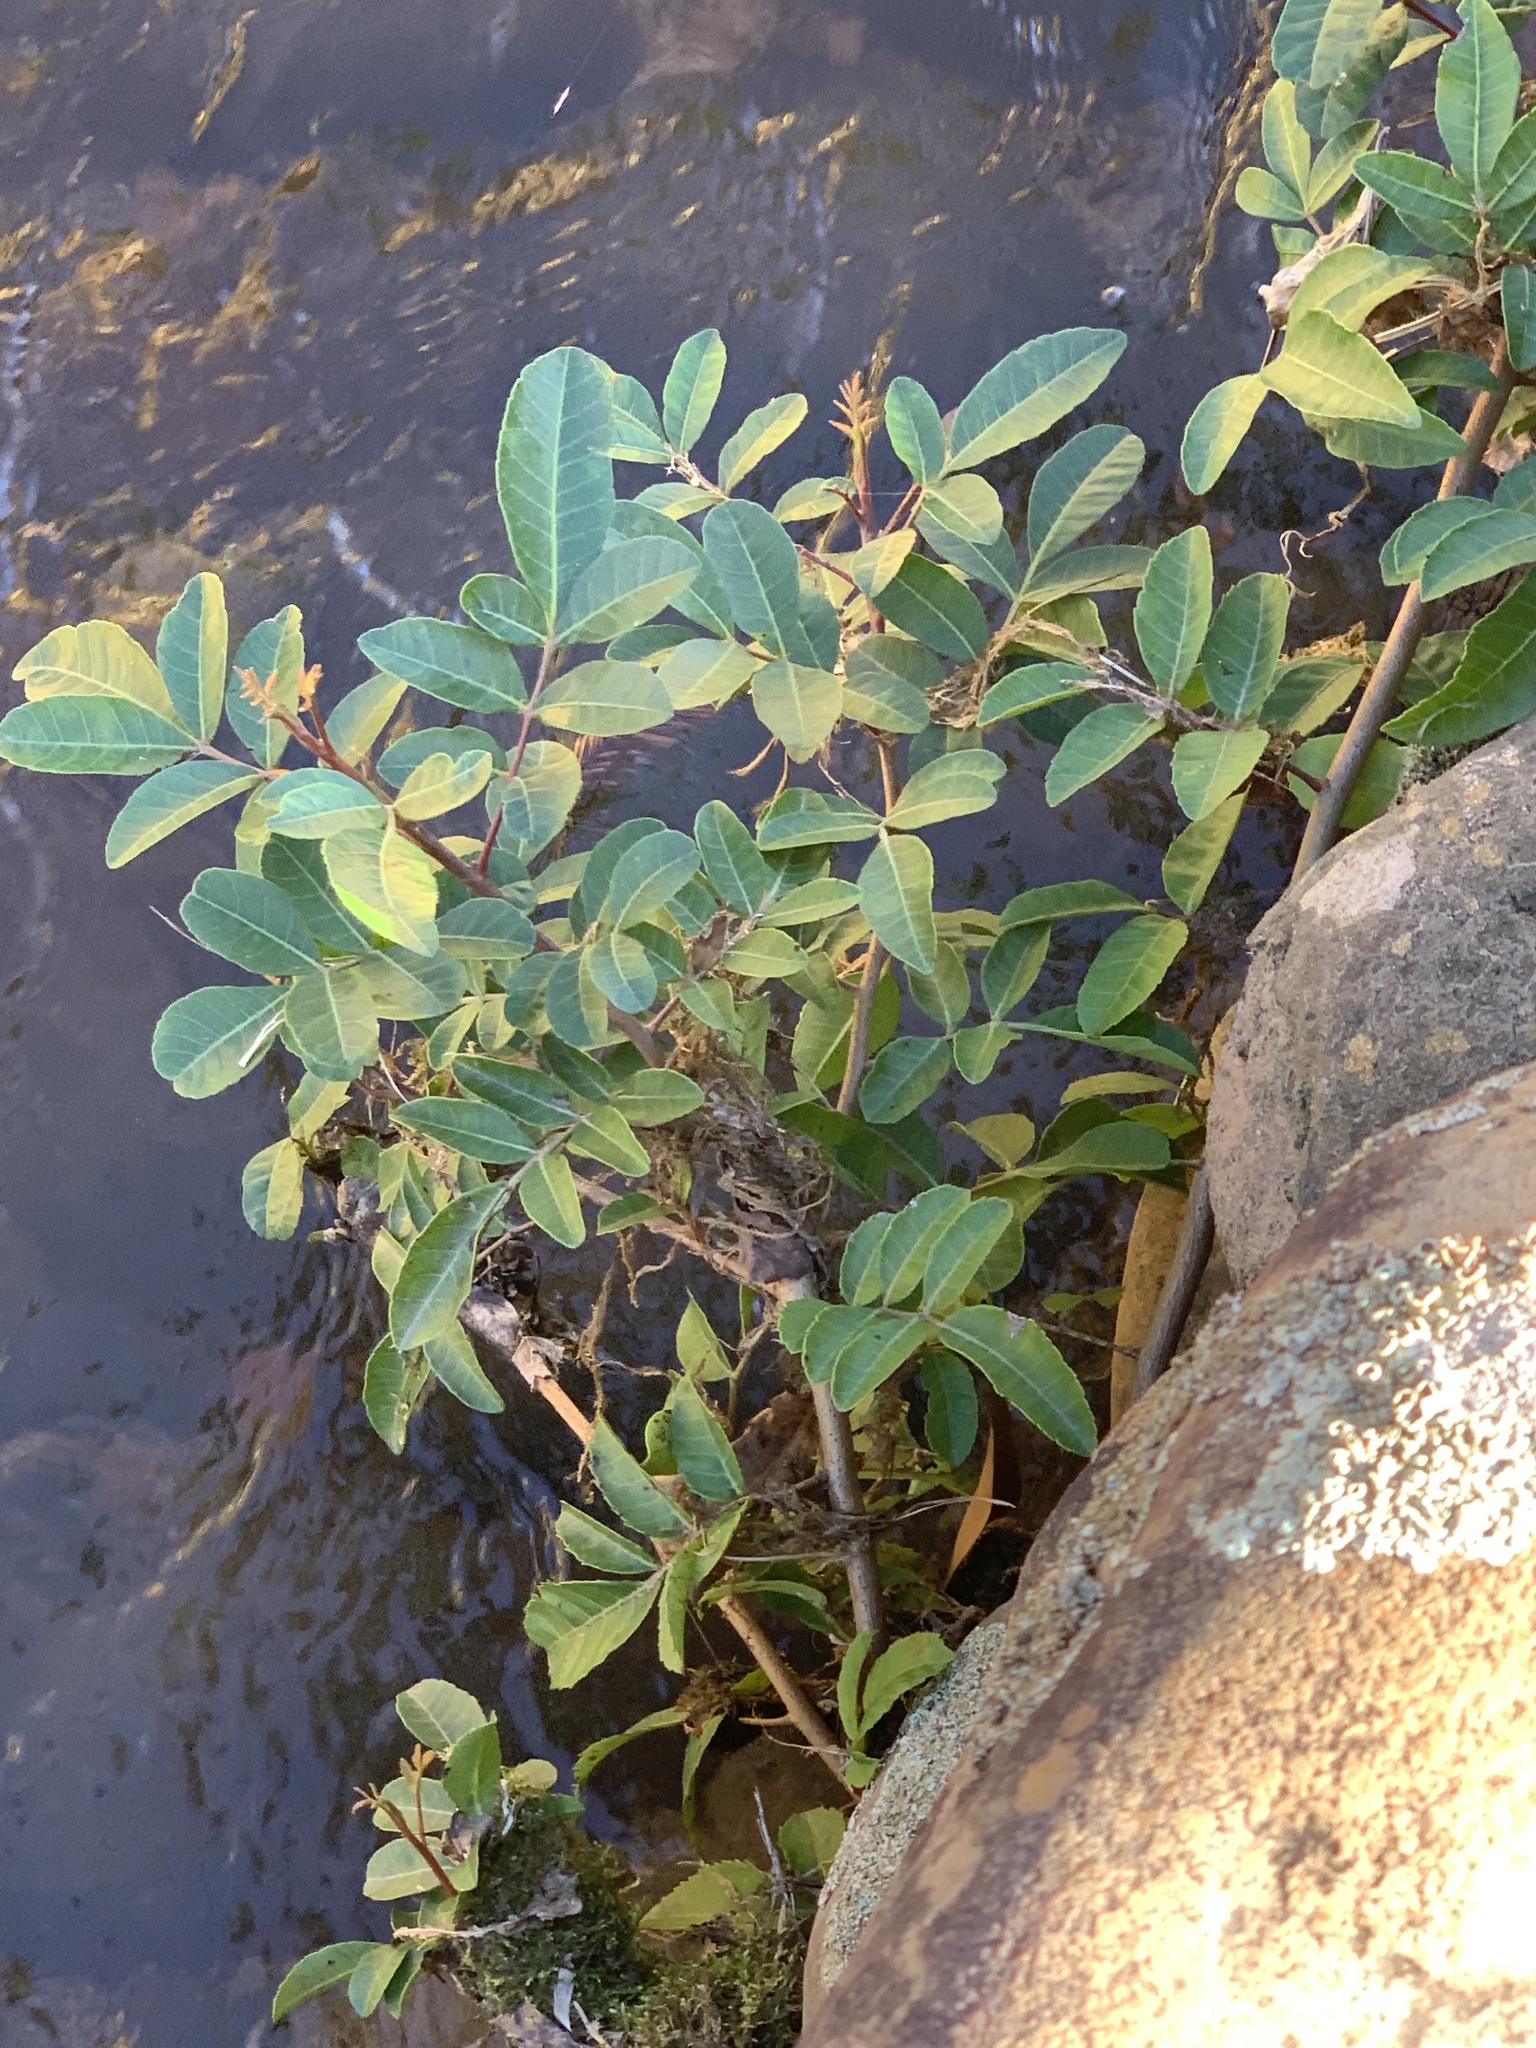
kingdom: Plantae
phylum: Tracheophyta
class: Magnoliopsida
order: Sapindales
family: Anacardiaceae
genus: Schinus
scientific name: Schinus terebinthifolia
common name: Brazilian peppertree
